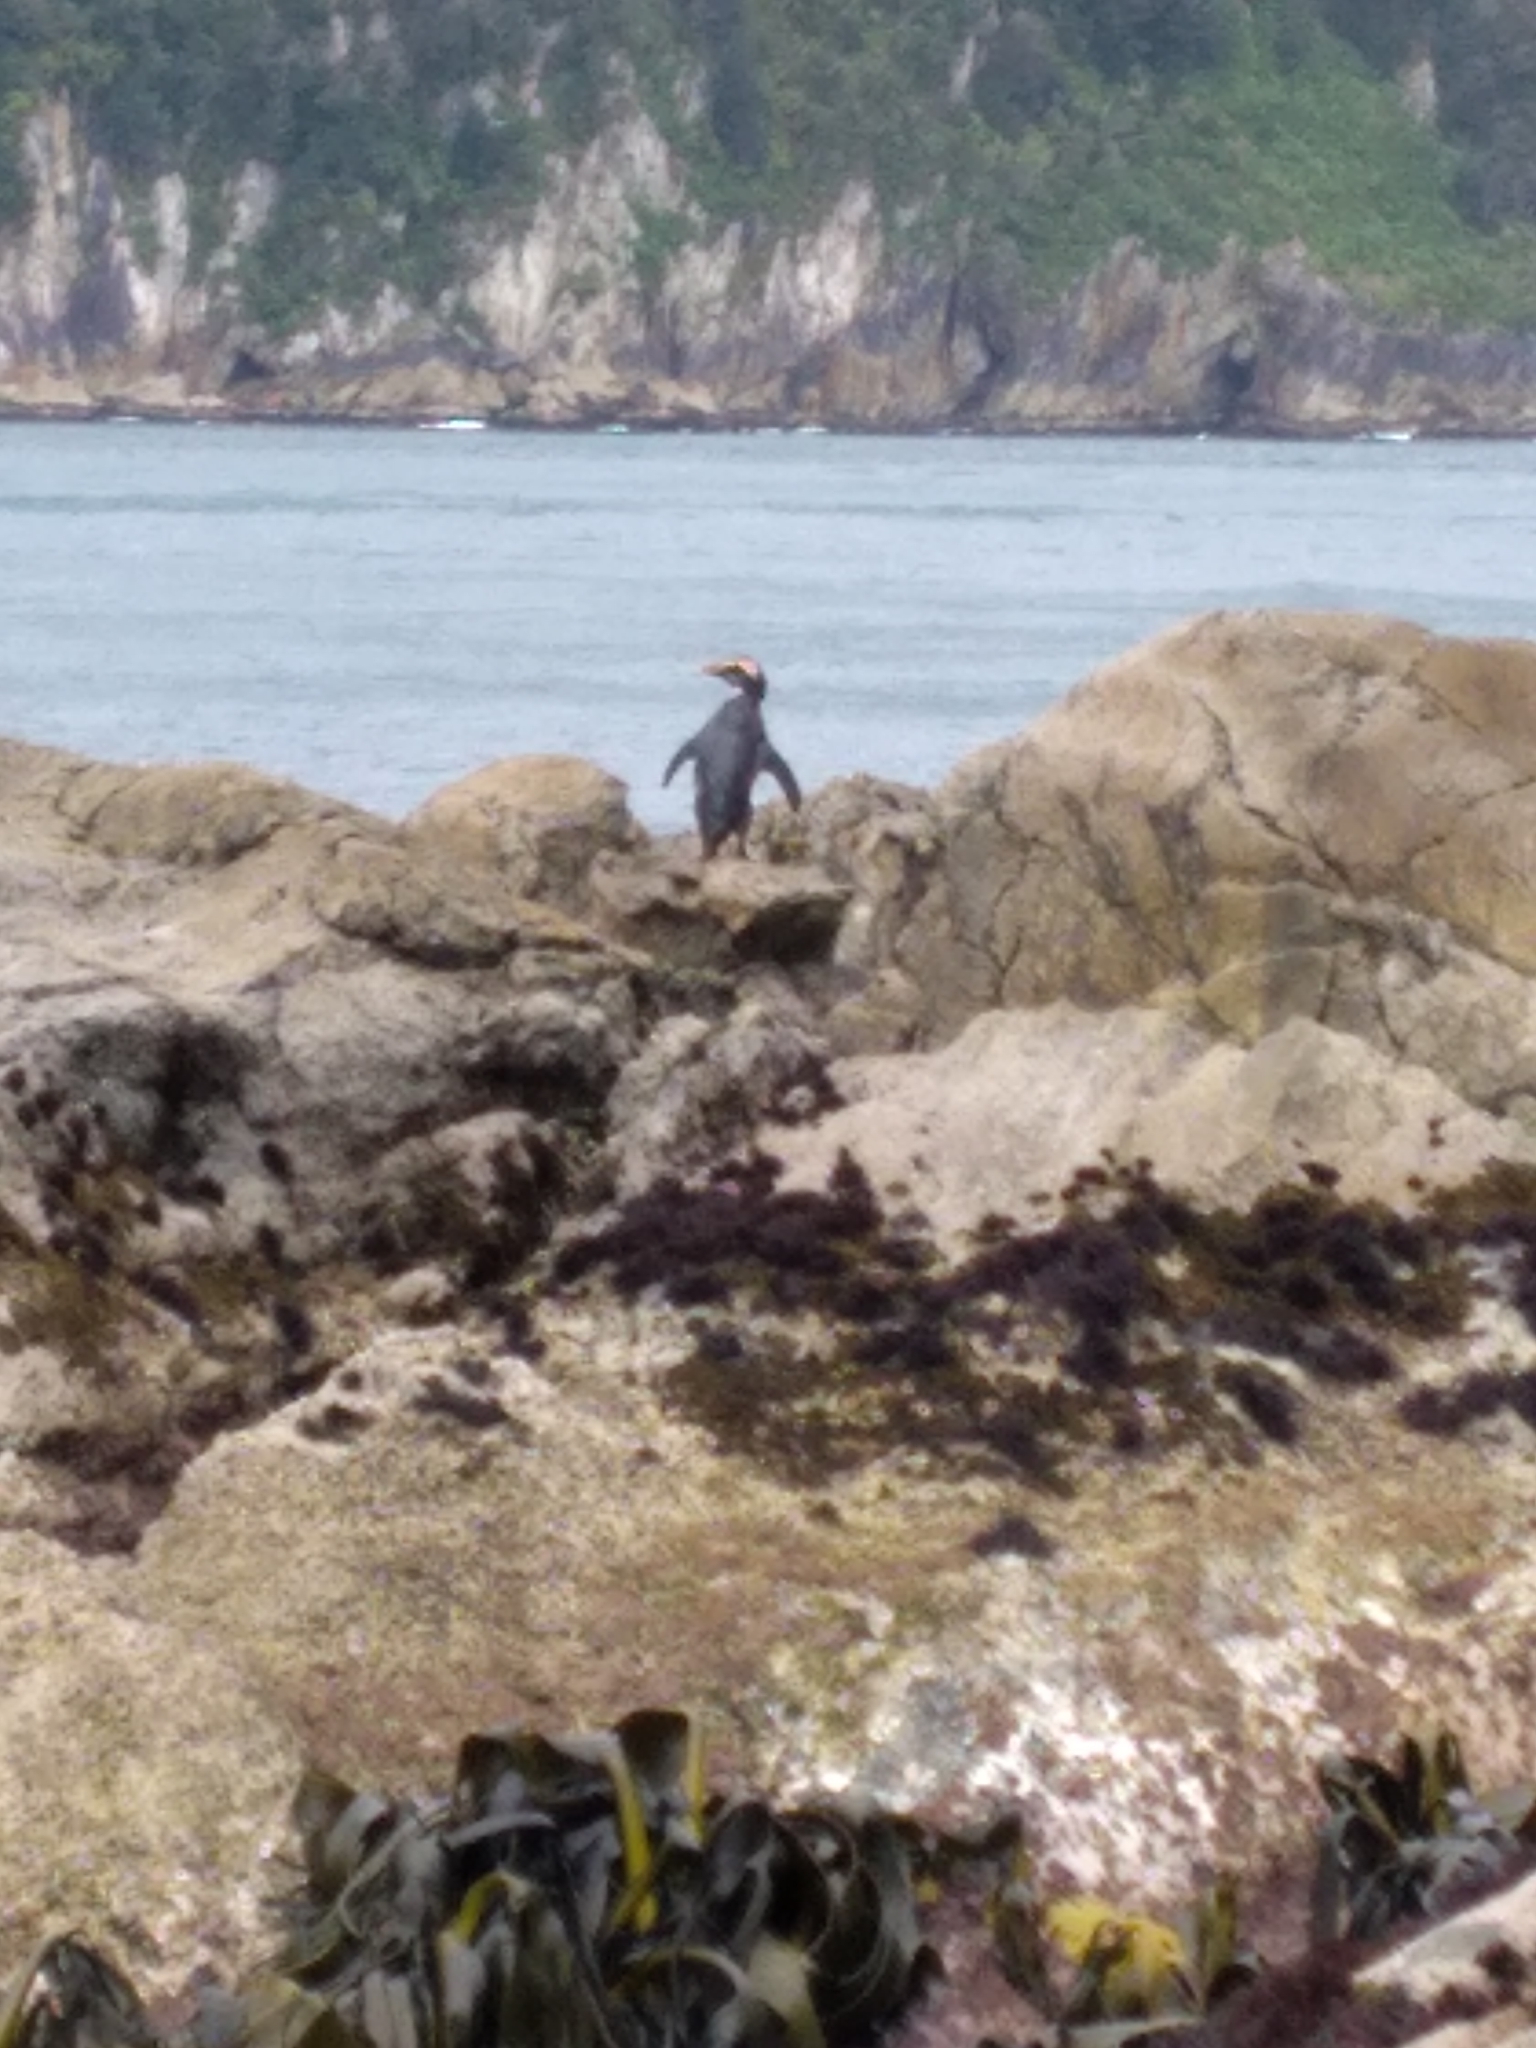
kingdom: Animalia
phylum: Chordata
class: Aves
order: Sphenisciformes
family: Spheniscidae
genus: Eudyptes
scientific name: Eudyptes pachyrhynchus
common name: Fiordland penguin
